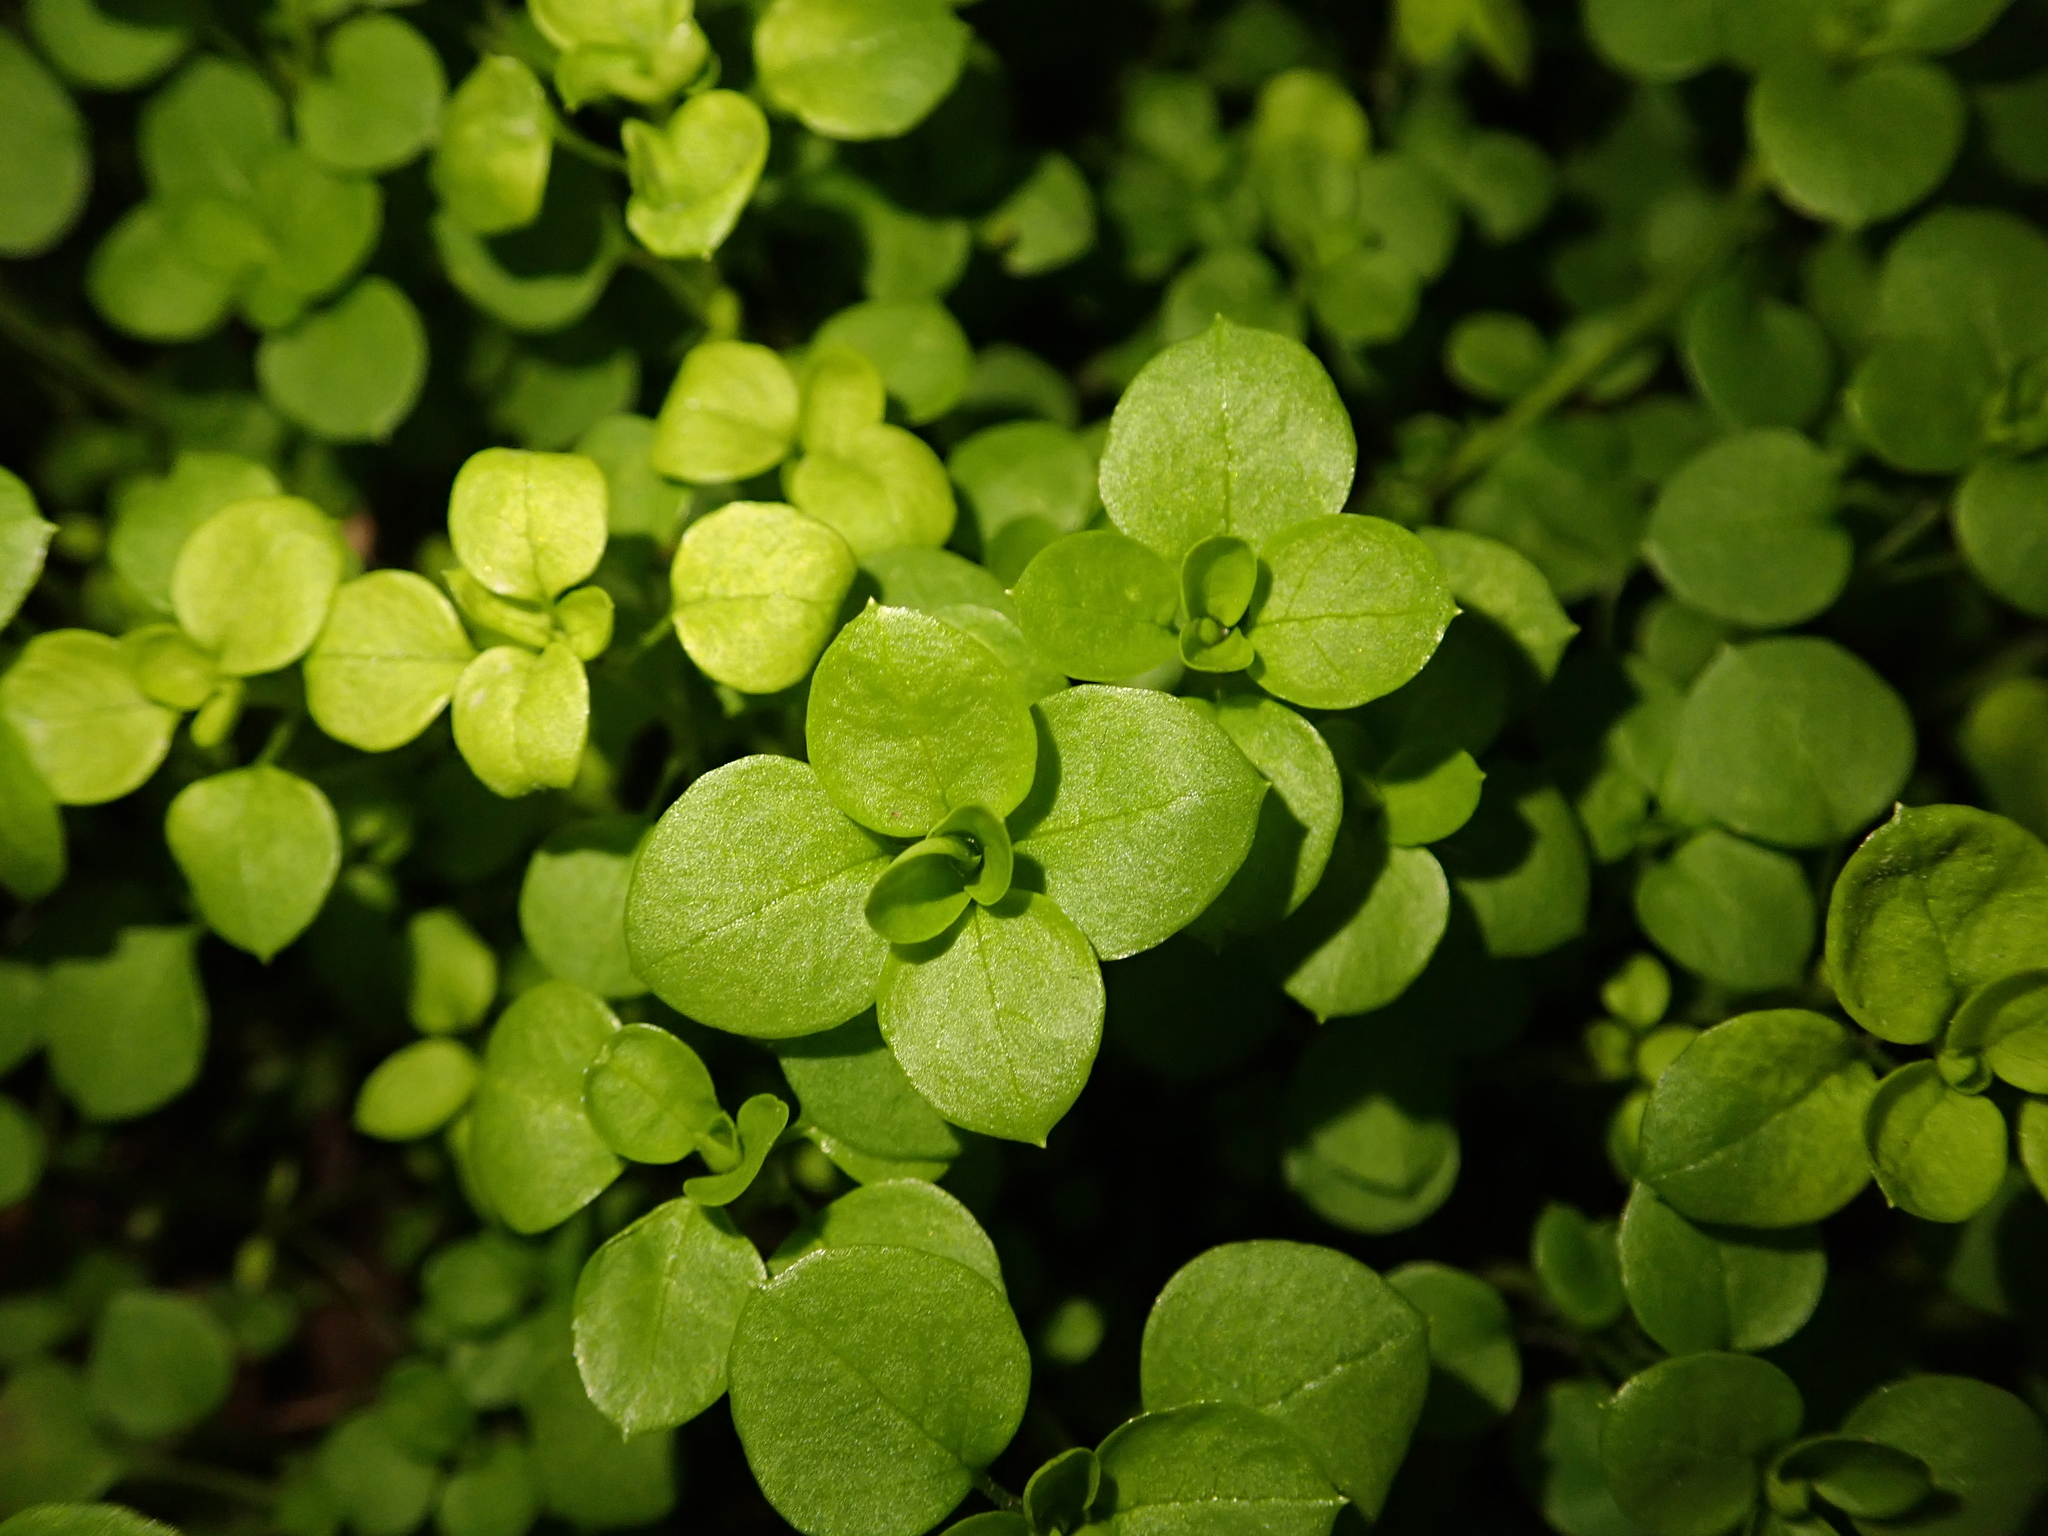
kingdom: Plantae
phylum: Tracheophyta
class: Magnoliopsida
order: Caryophyllales
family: Caryophyllaceae
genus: Stellaria
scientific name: Stellaria media
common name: Common chickweed
